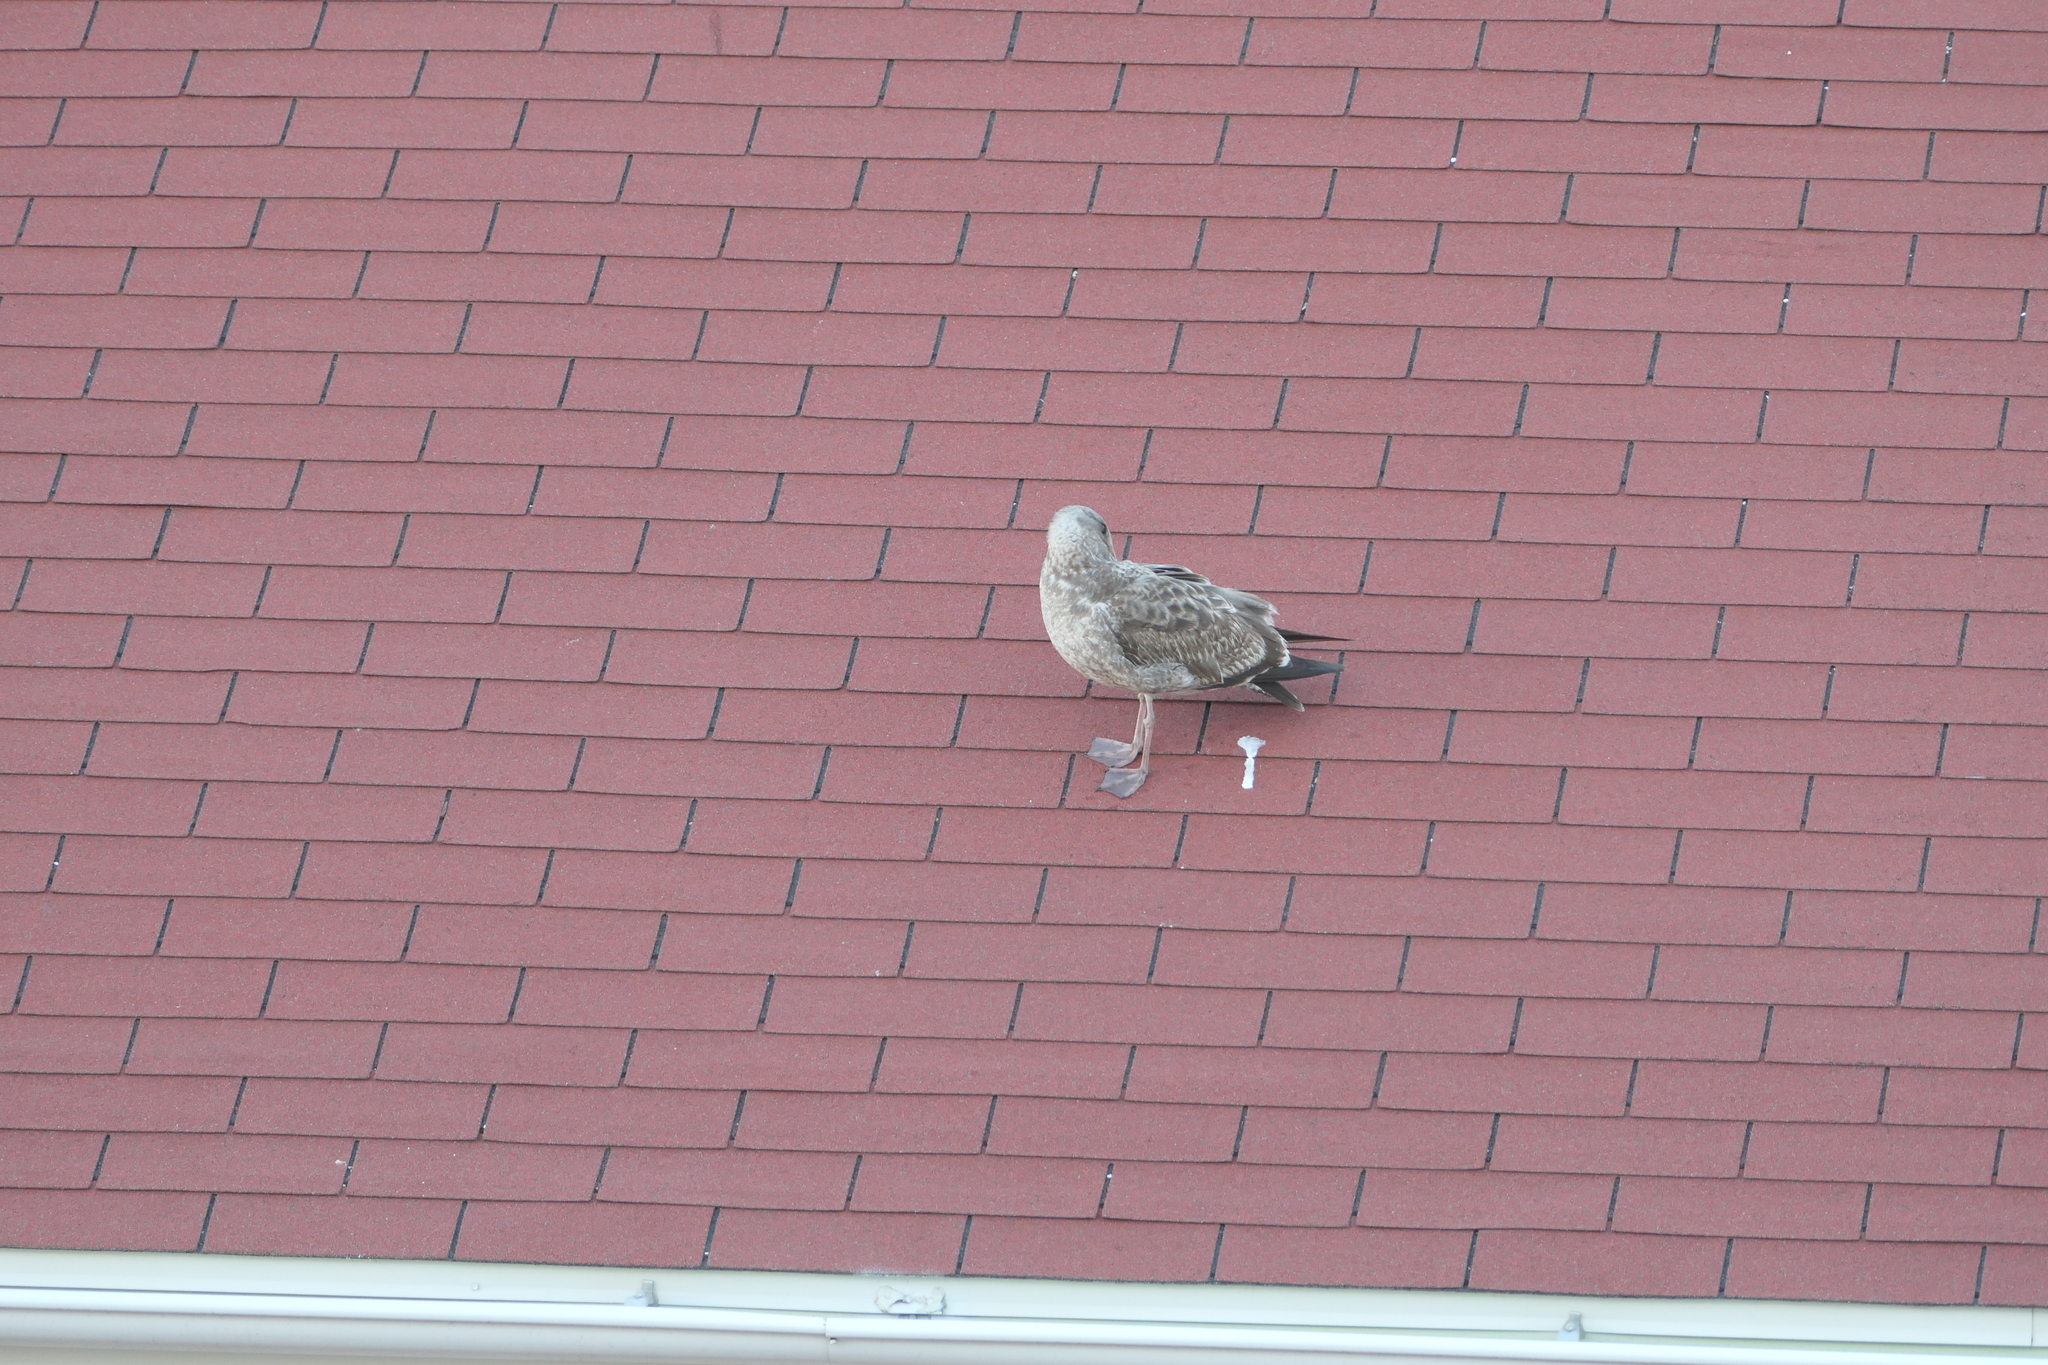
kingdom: Animalia
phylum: Chordata
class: Aves
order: Charadriiformes
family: Laridae
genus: Larus
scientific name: Larus occidentalis
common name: Western gull
